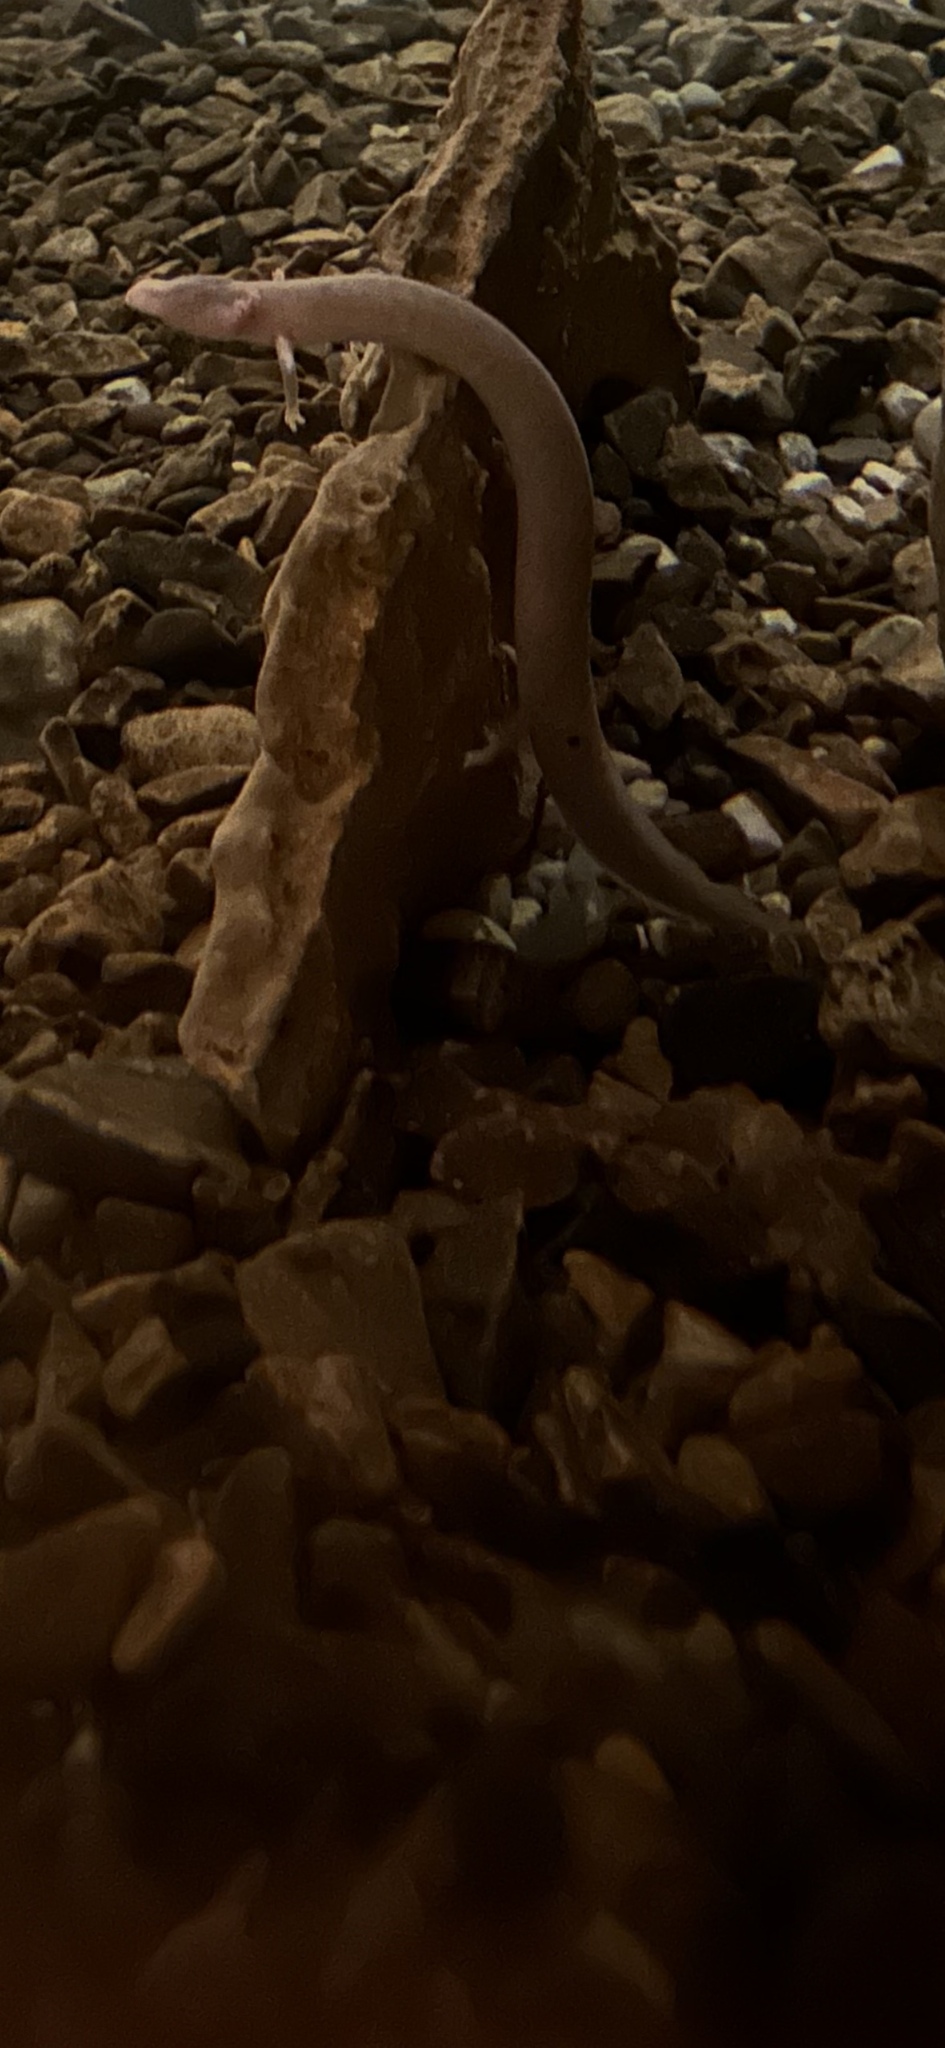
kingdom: Animalia
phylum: Chordata
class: Amphibia
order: Caudata
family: Proteidae
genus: Proteus
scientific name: Proteus anguinus
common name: Olm
